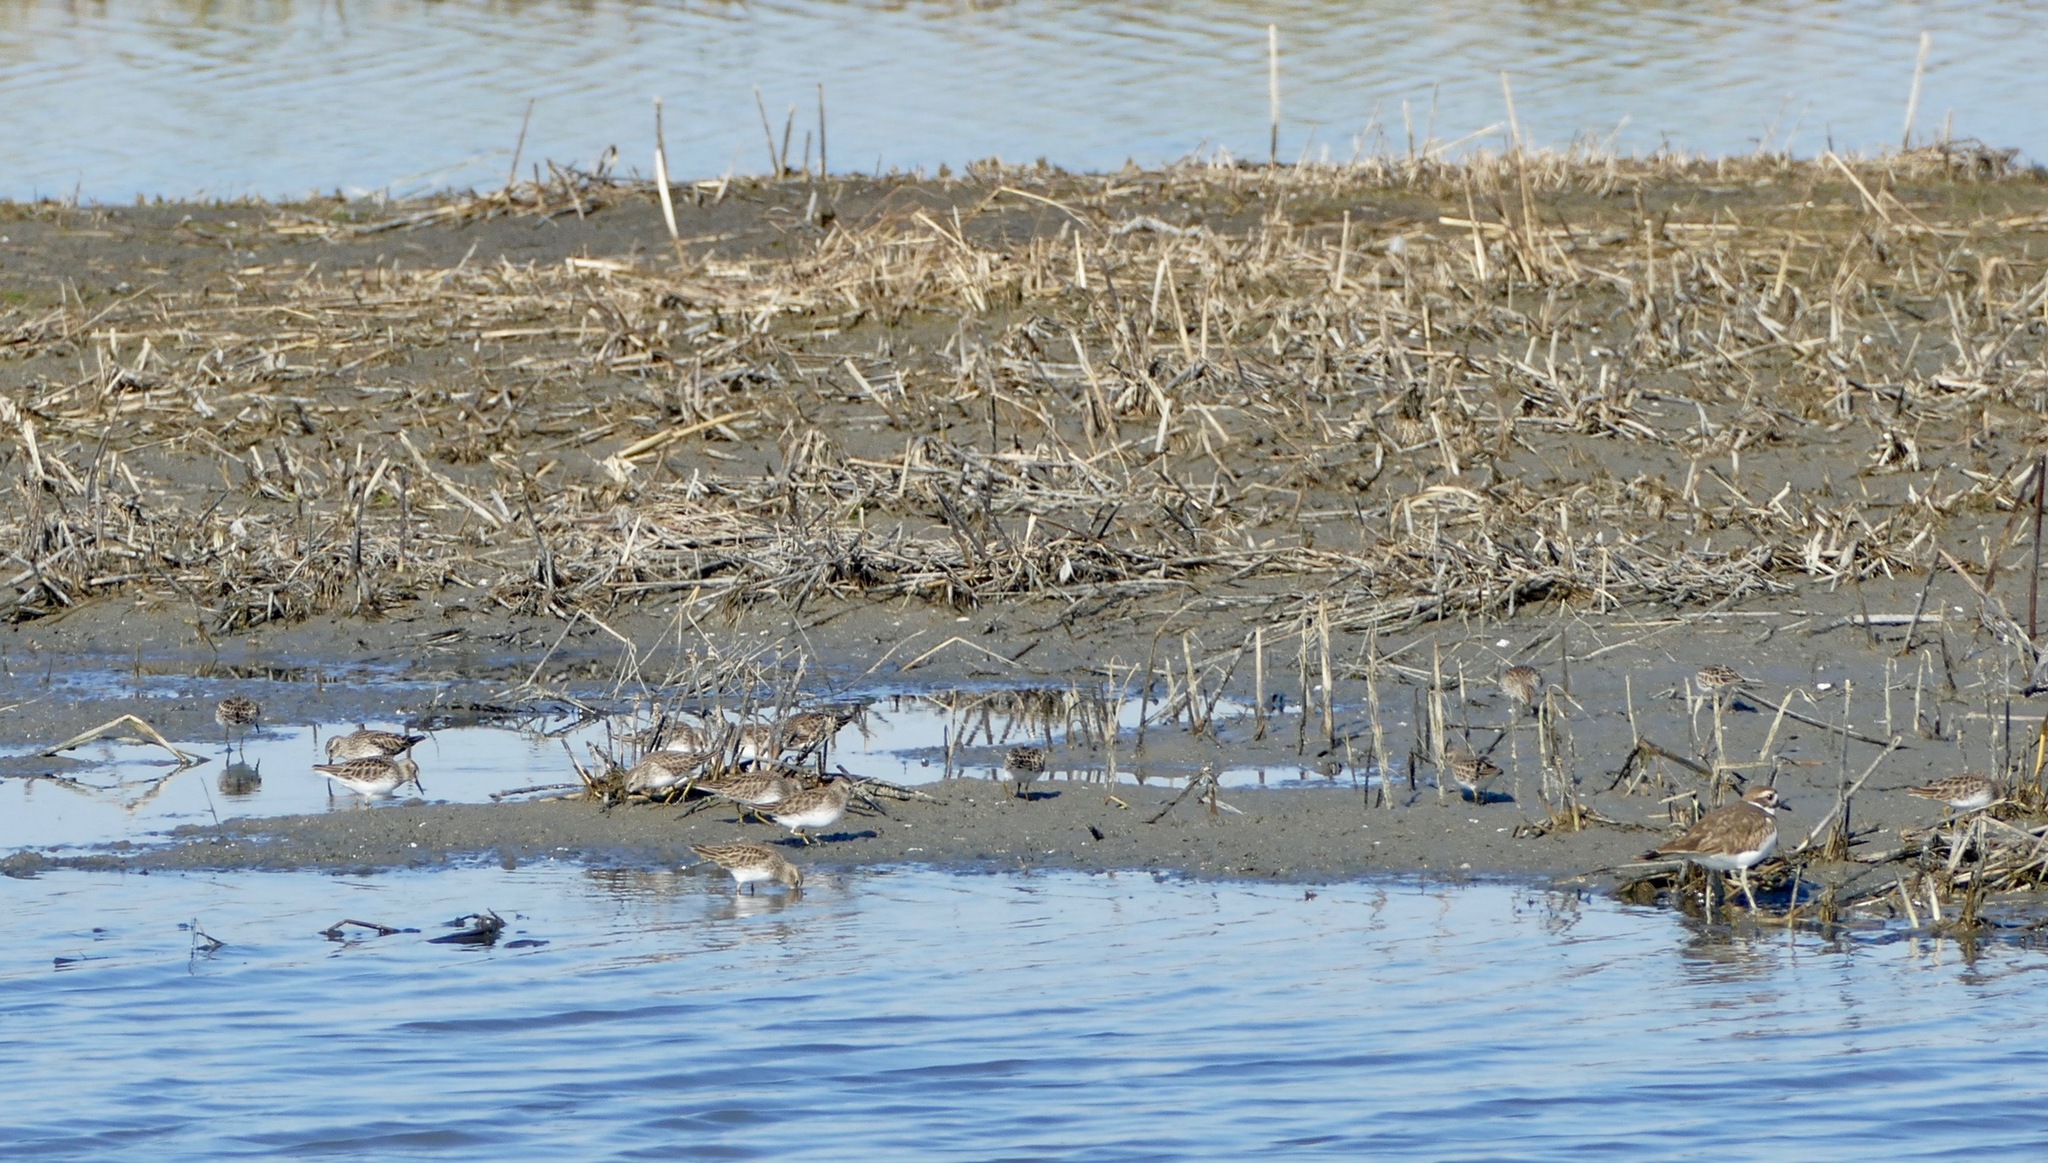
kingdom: Animalia
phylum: Chordata
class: Aves
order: Charadriiformes
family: Scolopacidae
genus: Calidris
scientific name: Calidris minutilla
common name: Least sandpiper
